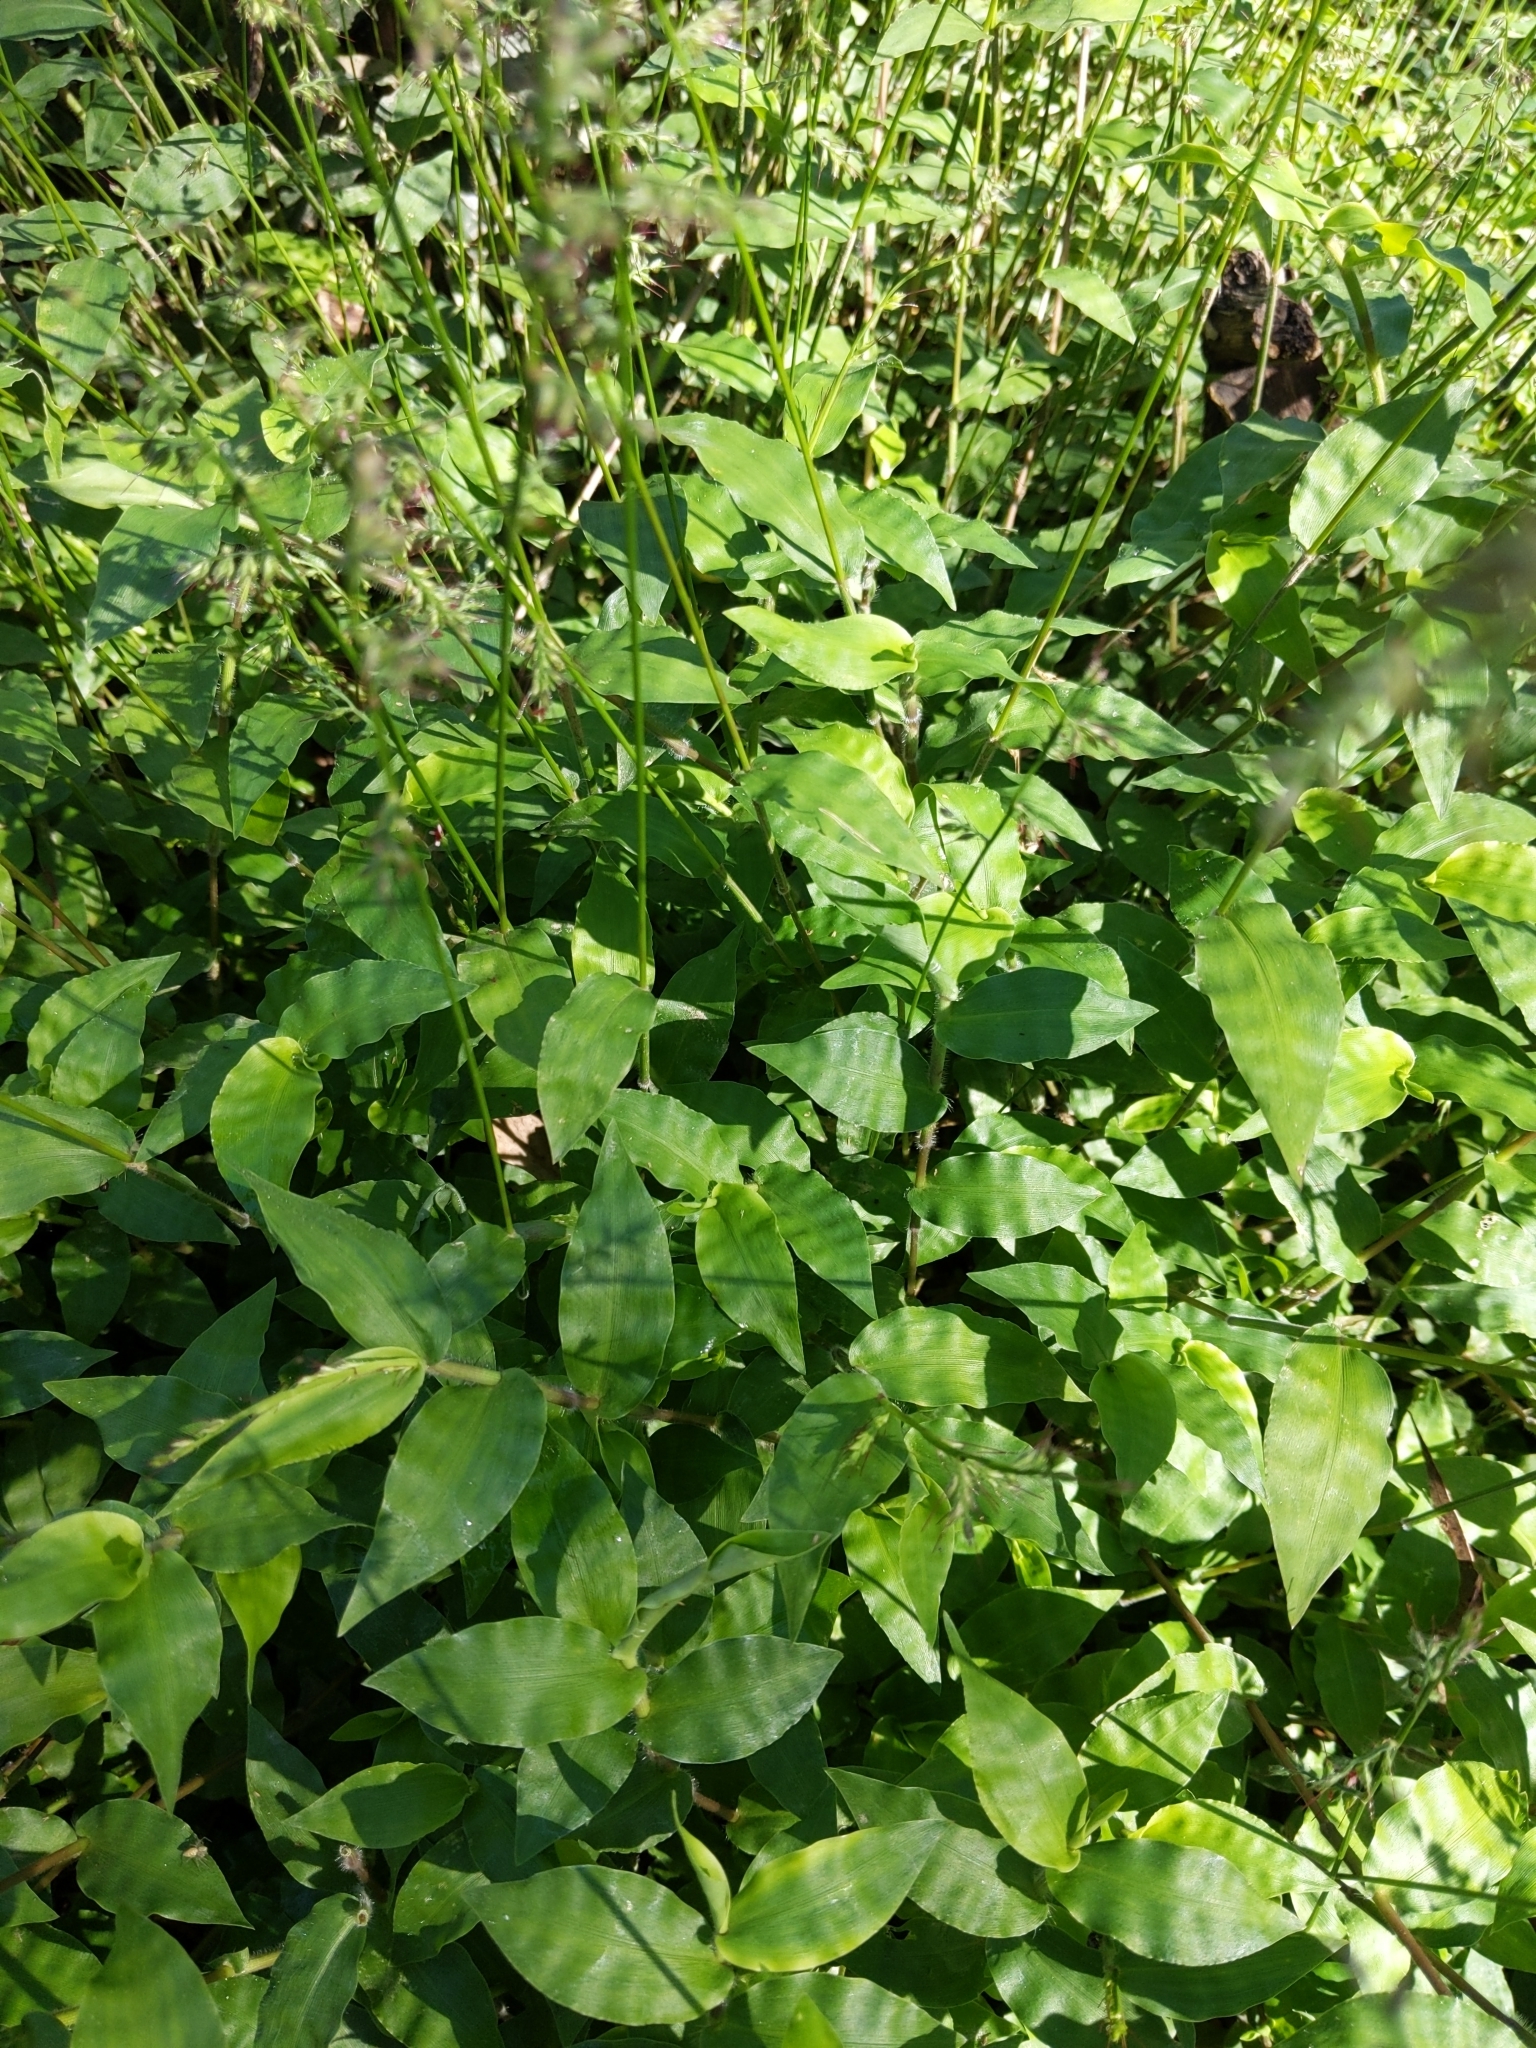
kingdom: Plantae
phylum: Tracheophyta
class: Liliopsida
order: Poales
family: Poaceae
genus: Oplismenus
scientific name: Oplismenus hirtellus
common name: Basketgrass
